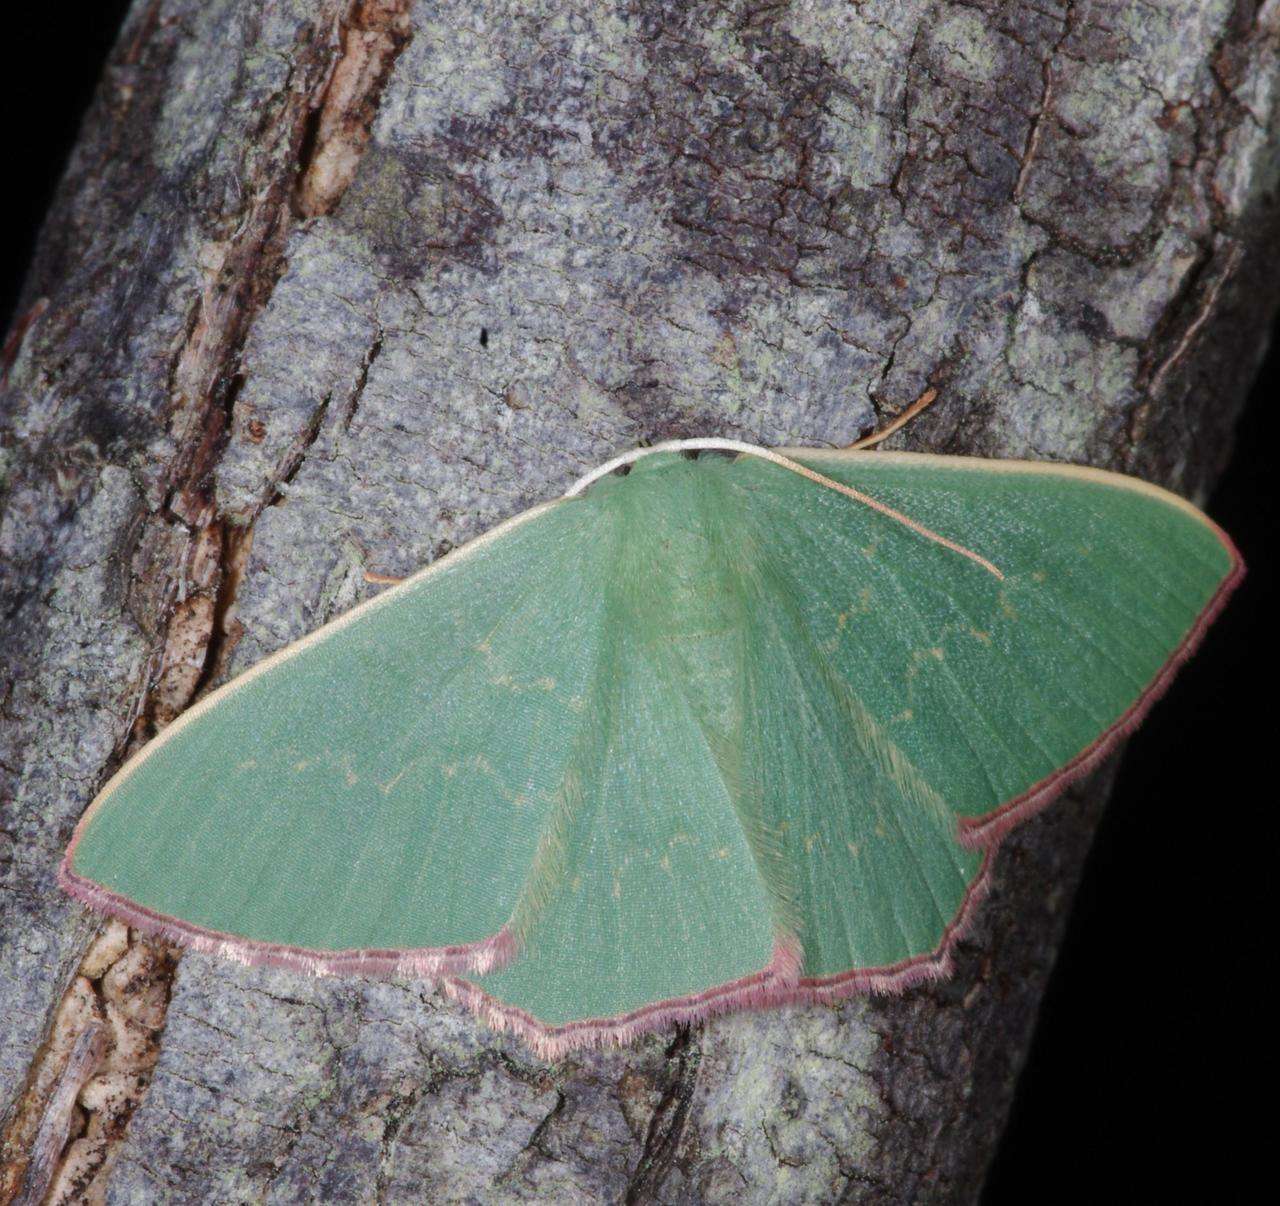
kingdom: Animalia
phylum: Arthropoda
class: Insecta
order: Lepidoptera
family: Geometridae
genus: Prasinocyma
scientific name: Prasinocyma semicrocea
